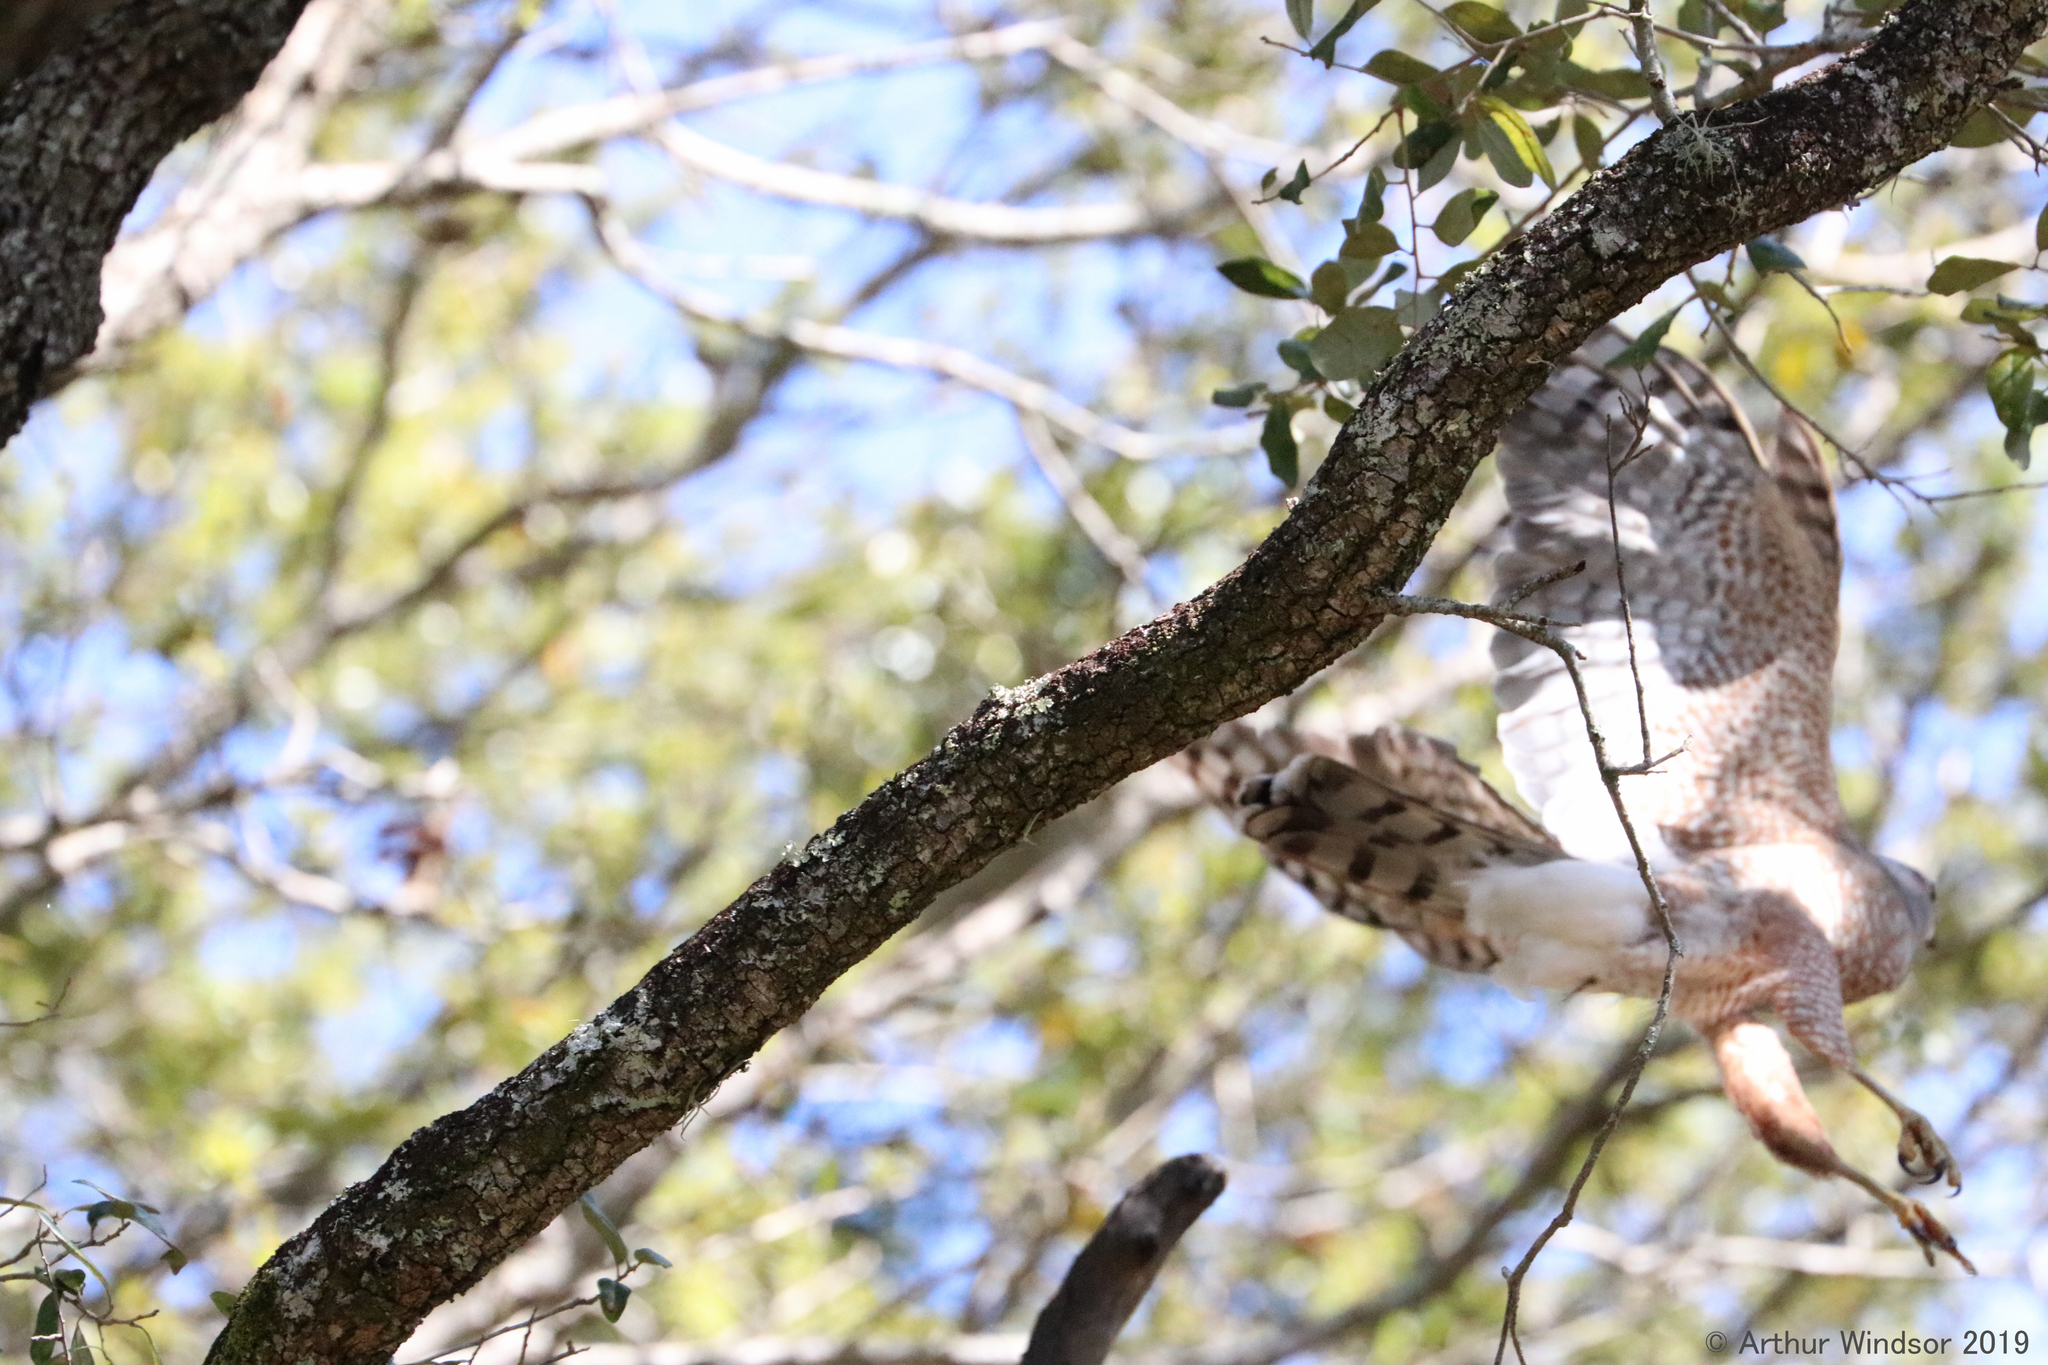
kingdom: Animalia
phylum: Chordata
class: Aves
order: Accipitriformes
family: Accipitridae
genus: Accipiter
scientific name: Accipiter cooperii
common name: Cooper's hawk
